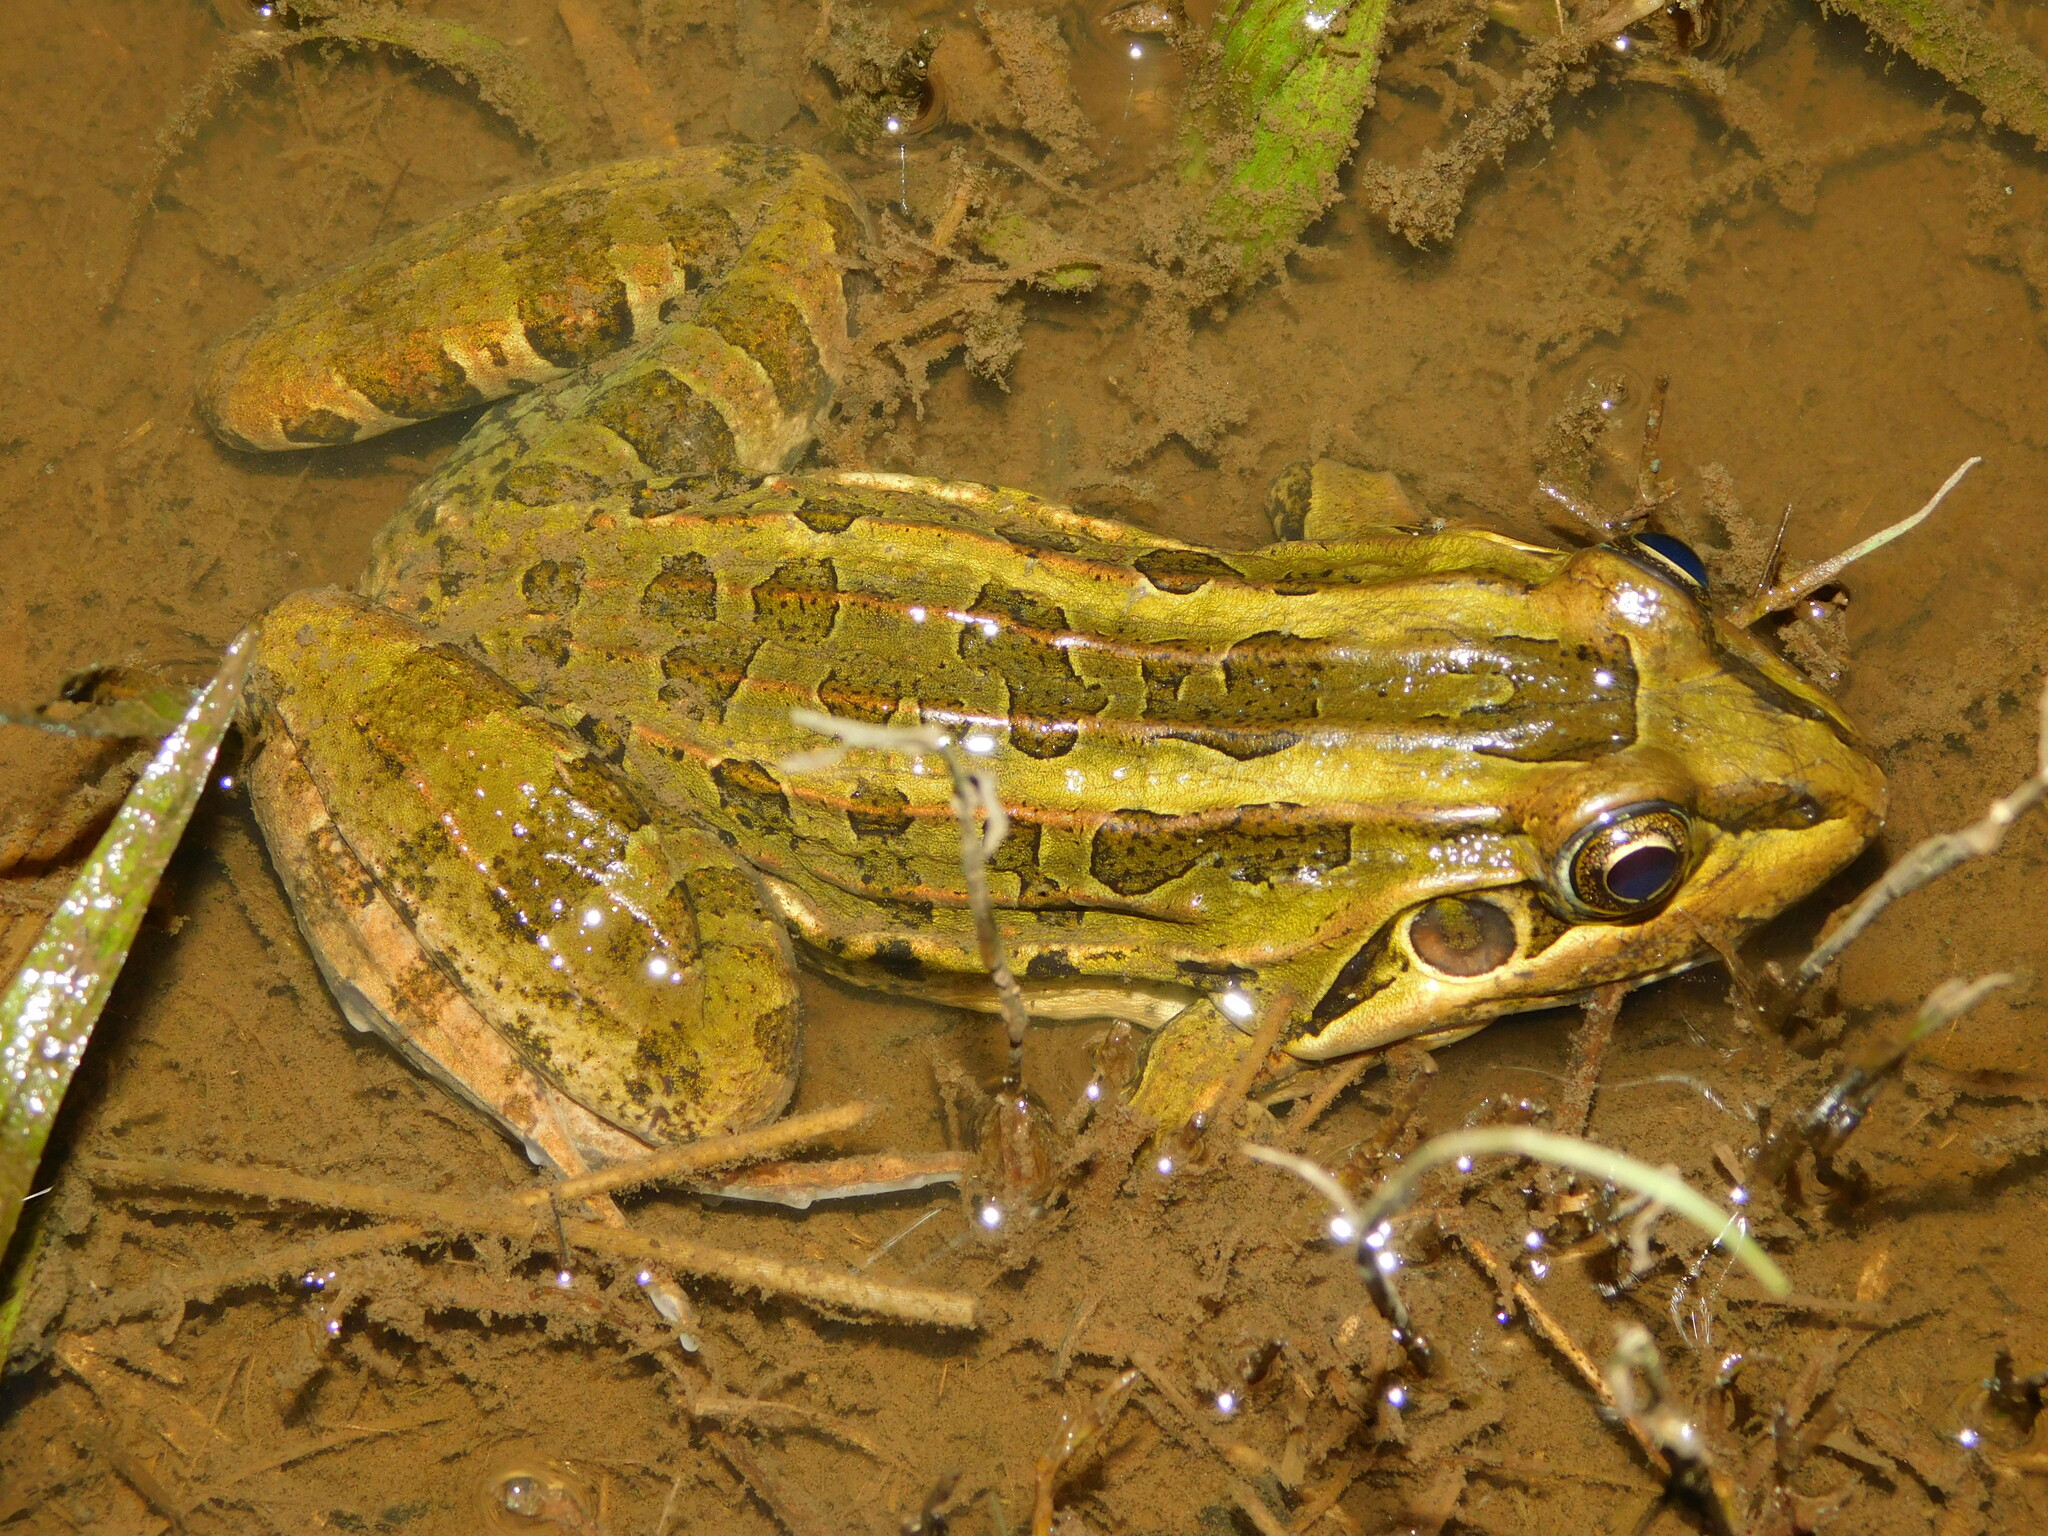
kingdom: Animalia
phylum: Chordata
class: Amphibia
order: Anura
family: Leptodactylidae
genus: Leptodactylus
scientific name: Leptodactylus luctator
